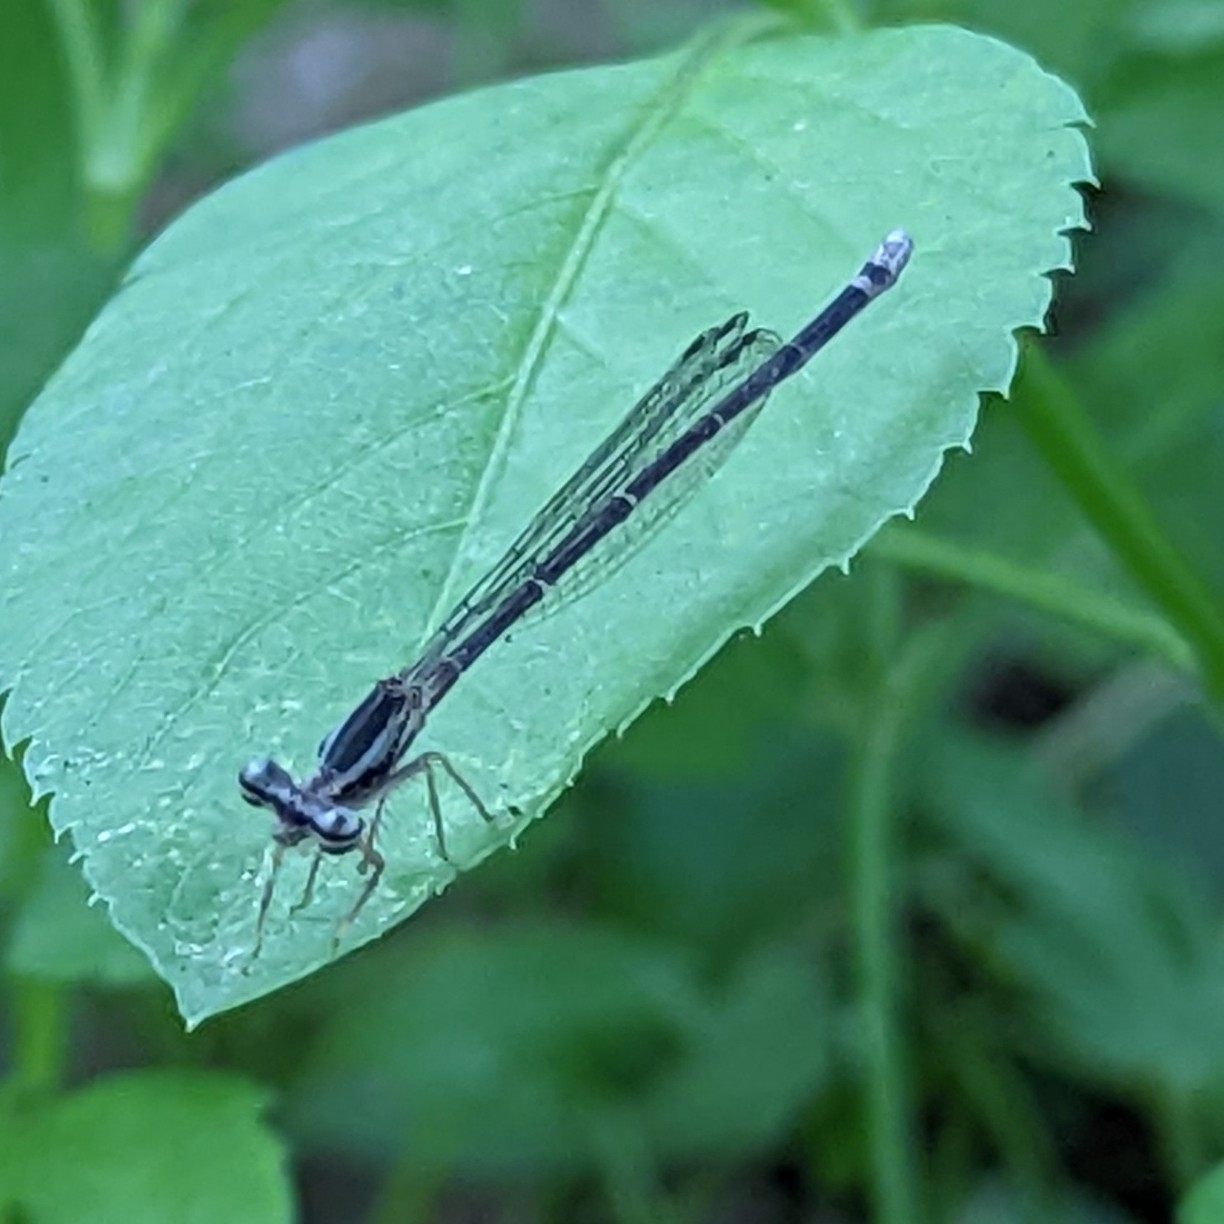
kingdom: Animalia
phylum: Arthropoda
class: Insecta
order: Odonata
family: Platycnemididae
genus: Copera
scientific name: Copera marginipes
